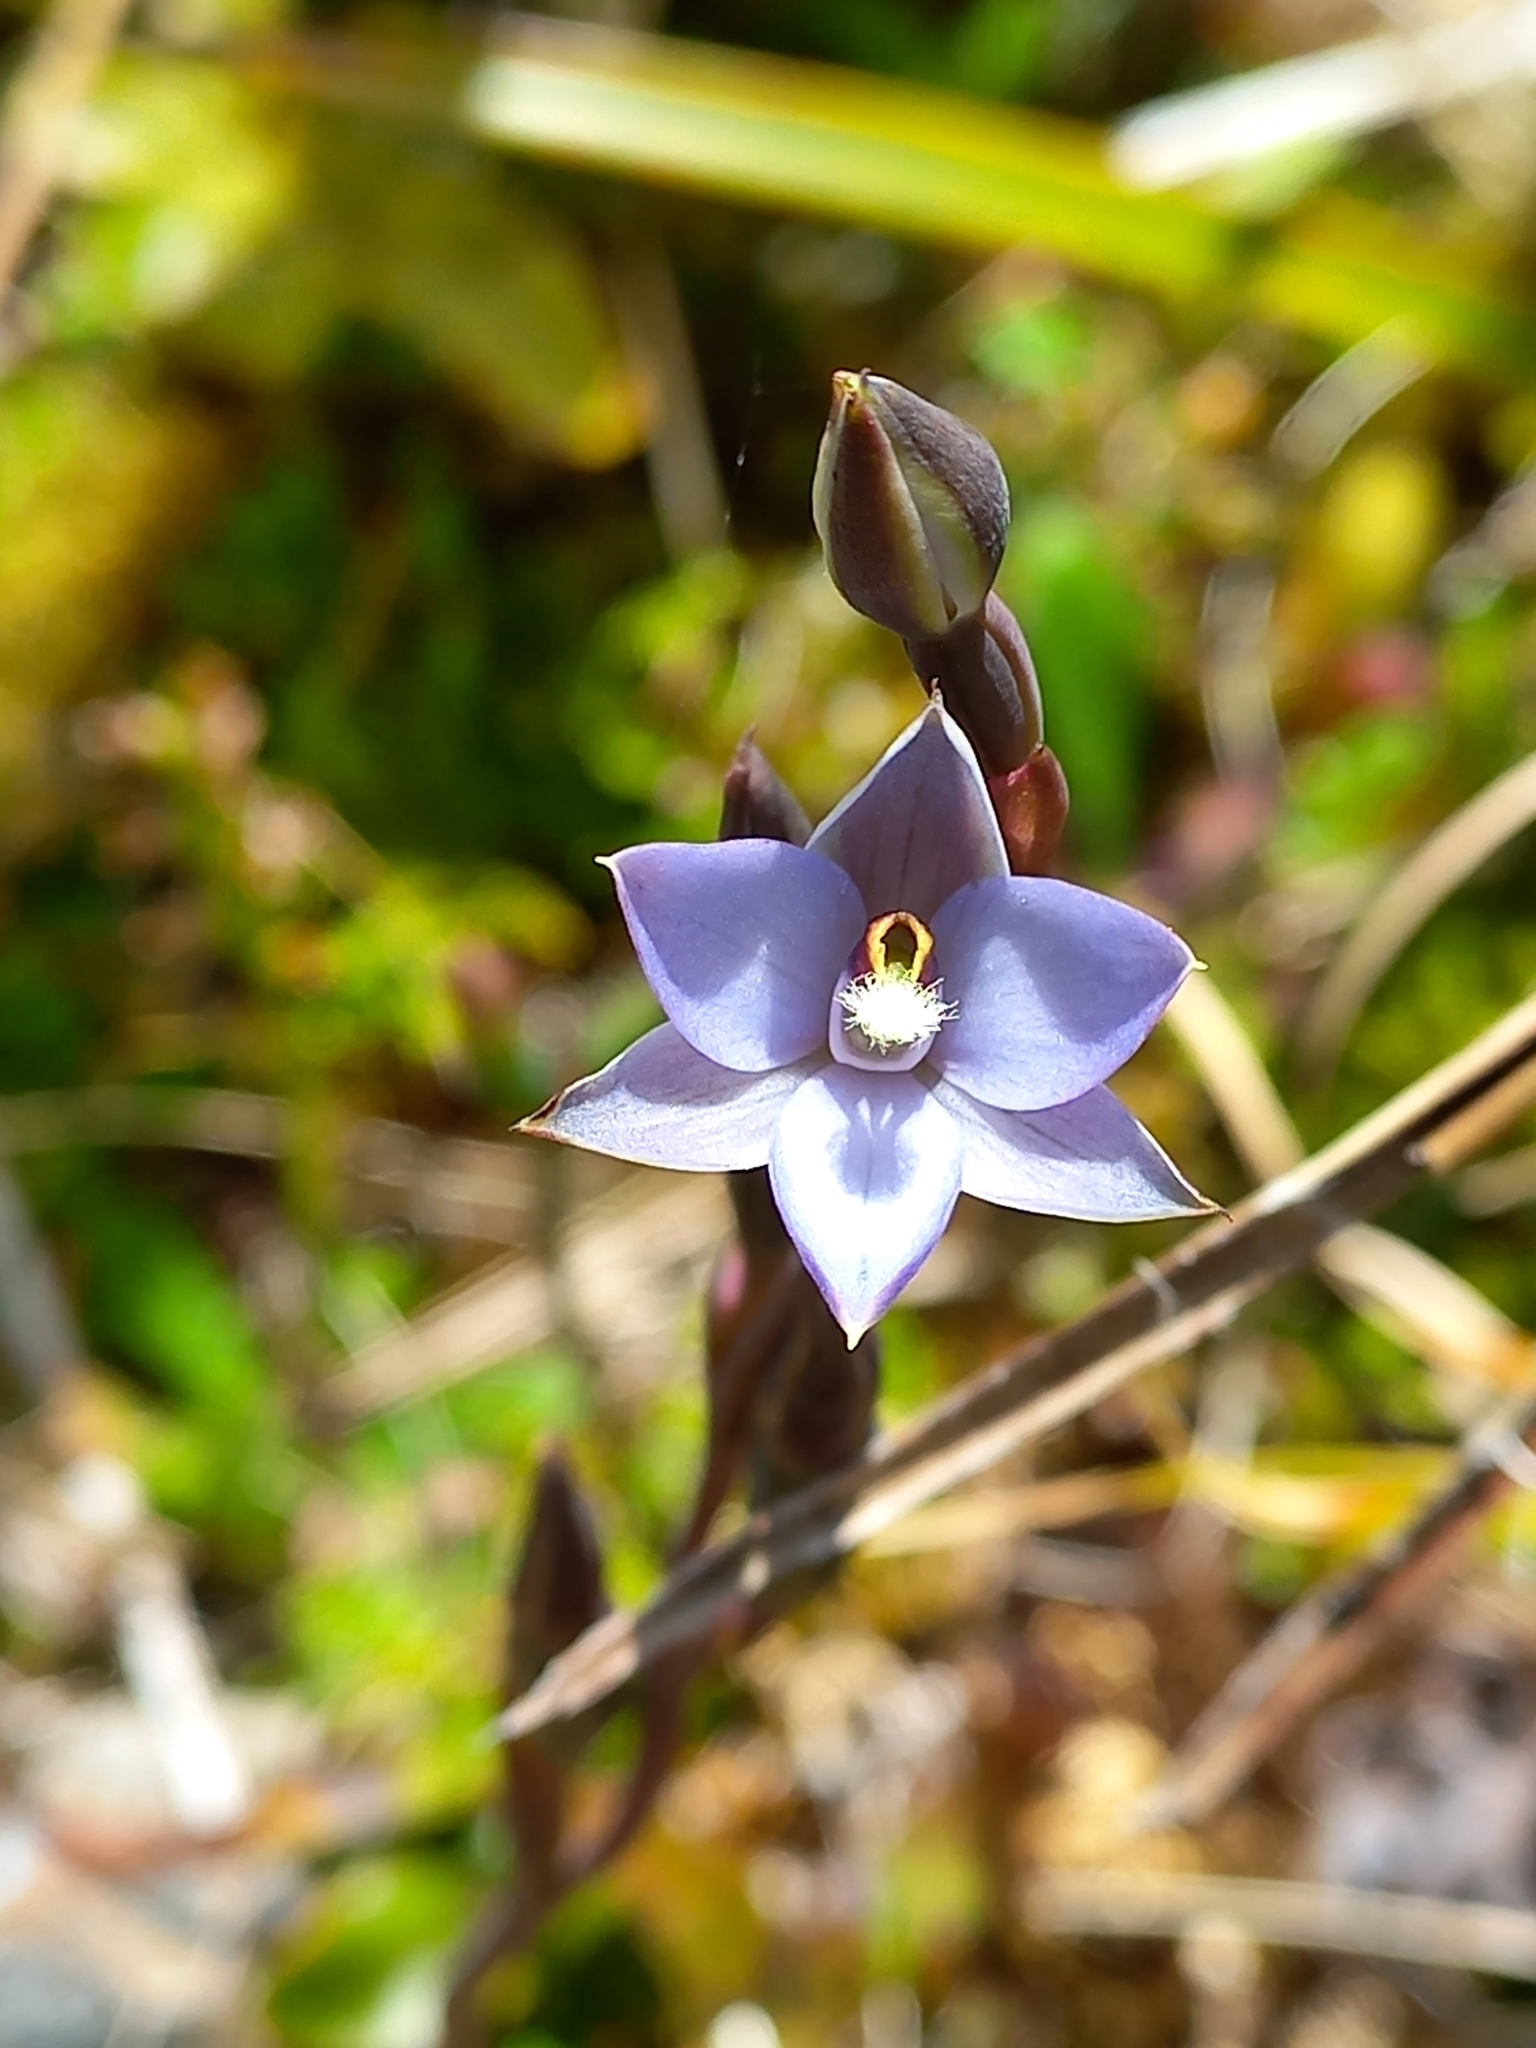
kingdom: Plantae
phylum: Tracheophyta
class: Liliopsida
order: Asparagales
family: Orchidaceae
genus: Thelymitra
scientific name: Thelymitra hatchii
